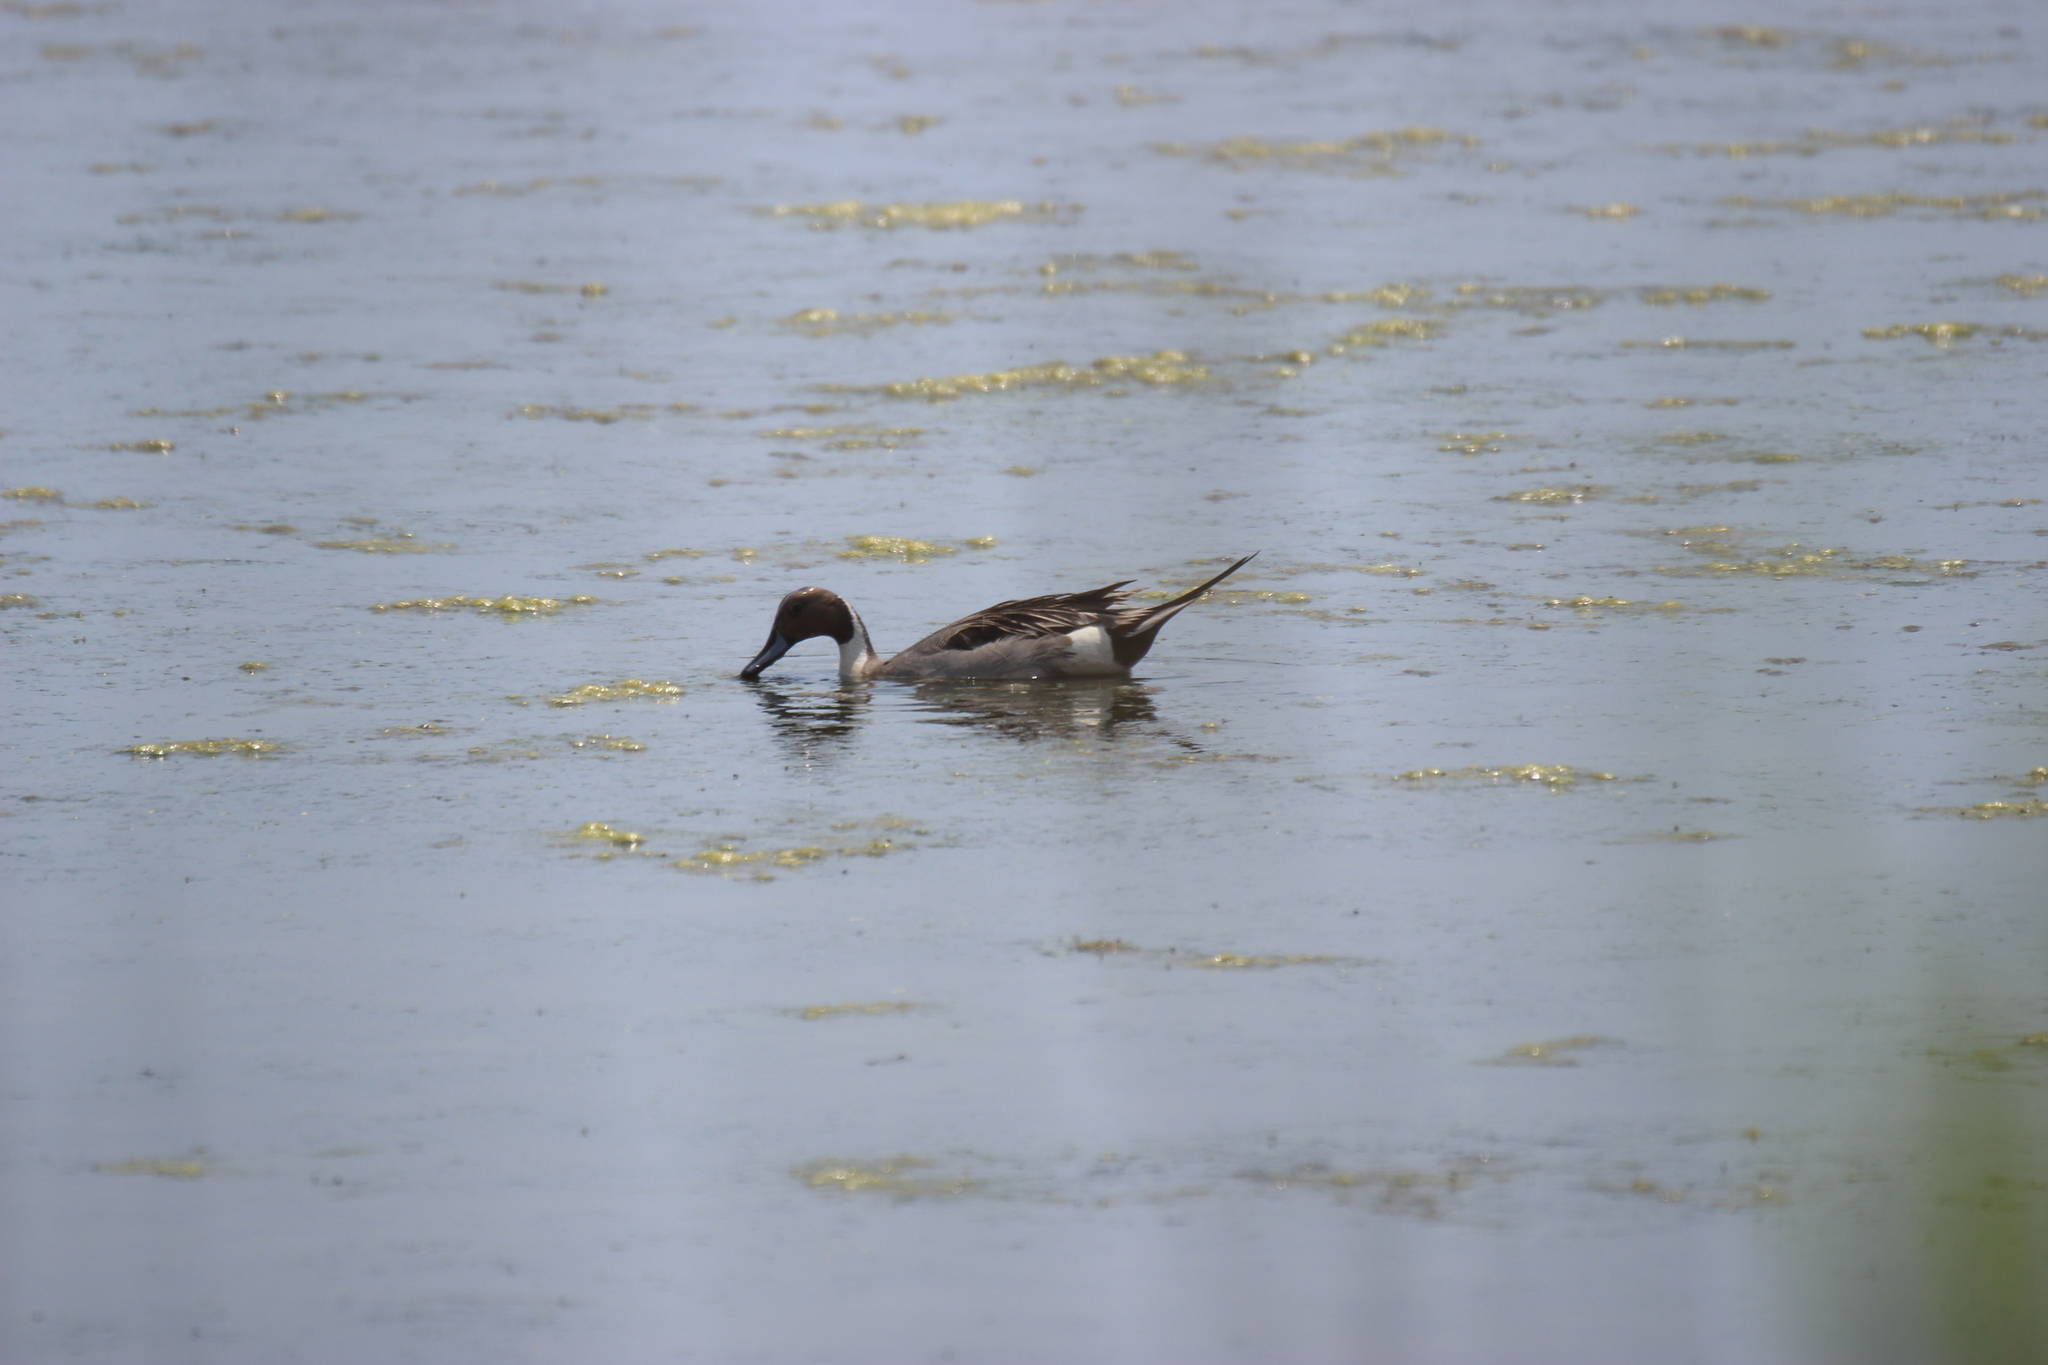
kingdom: Animalia
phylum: Chordata
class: Aves
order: Anseriformes
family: Anatidae
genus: Anas
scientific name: Anas acuta
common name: Northern pintail
